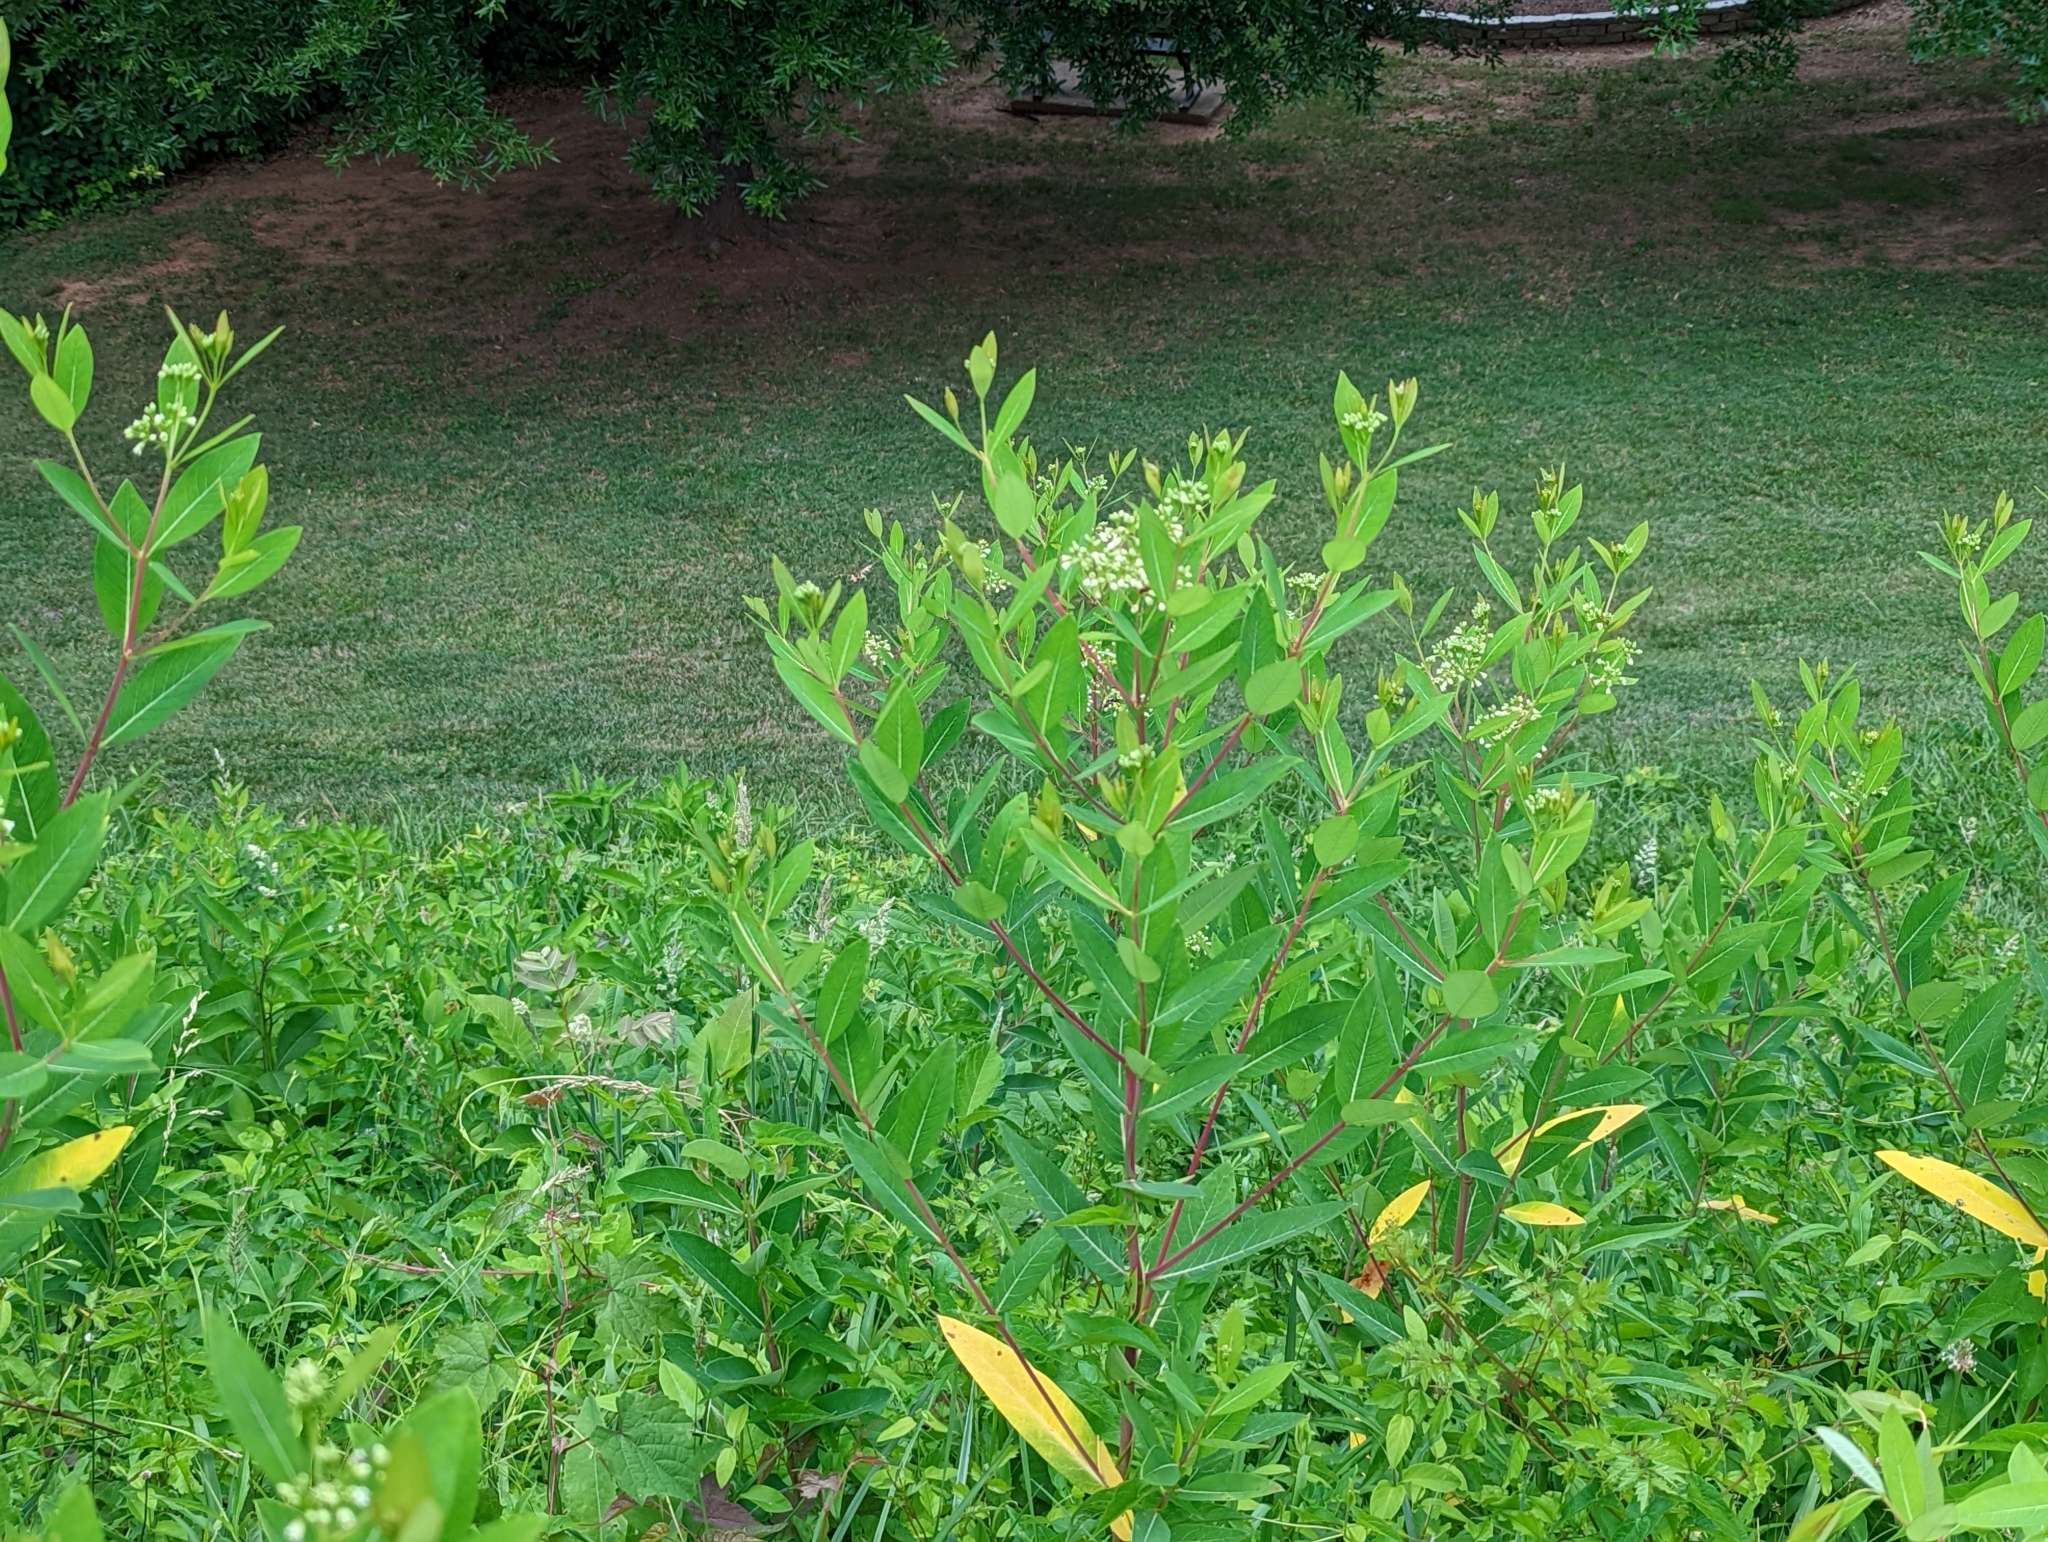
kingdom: Plantae
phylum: Tracheophyta
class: Magnoliopsida
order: Gentianales
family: Apocynaceae
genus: Apocynum
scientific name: Apocynum cannabinum
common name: Hemp dogbane
